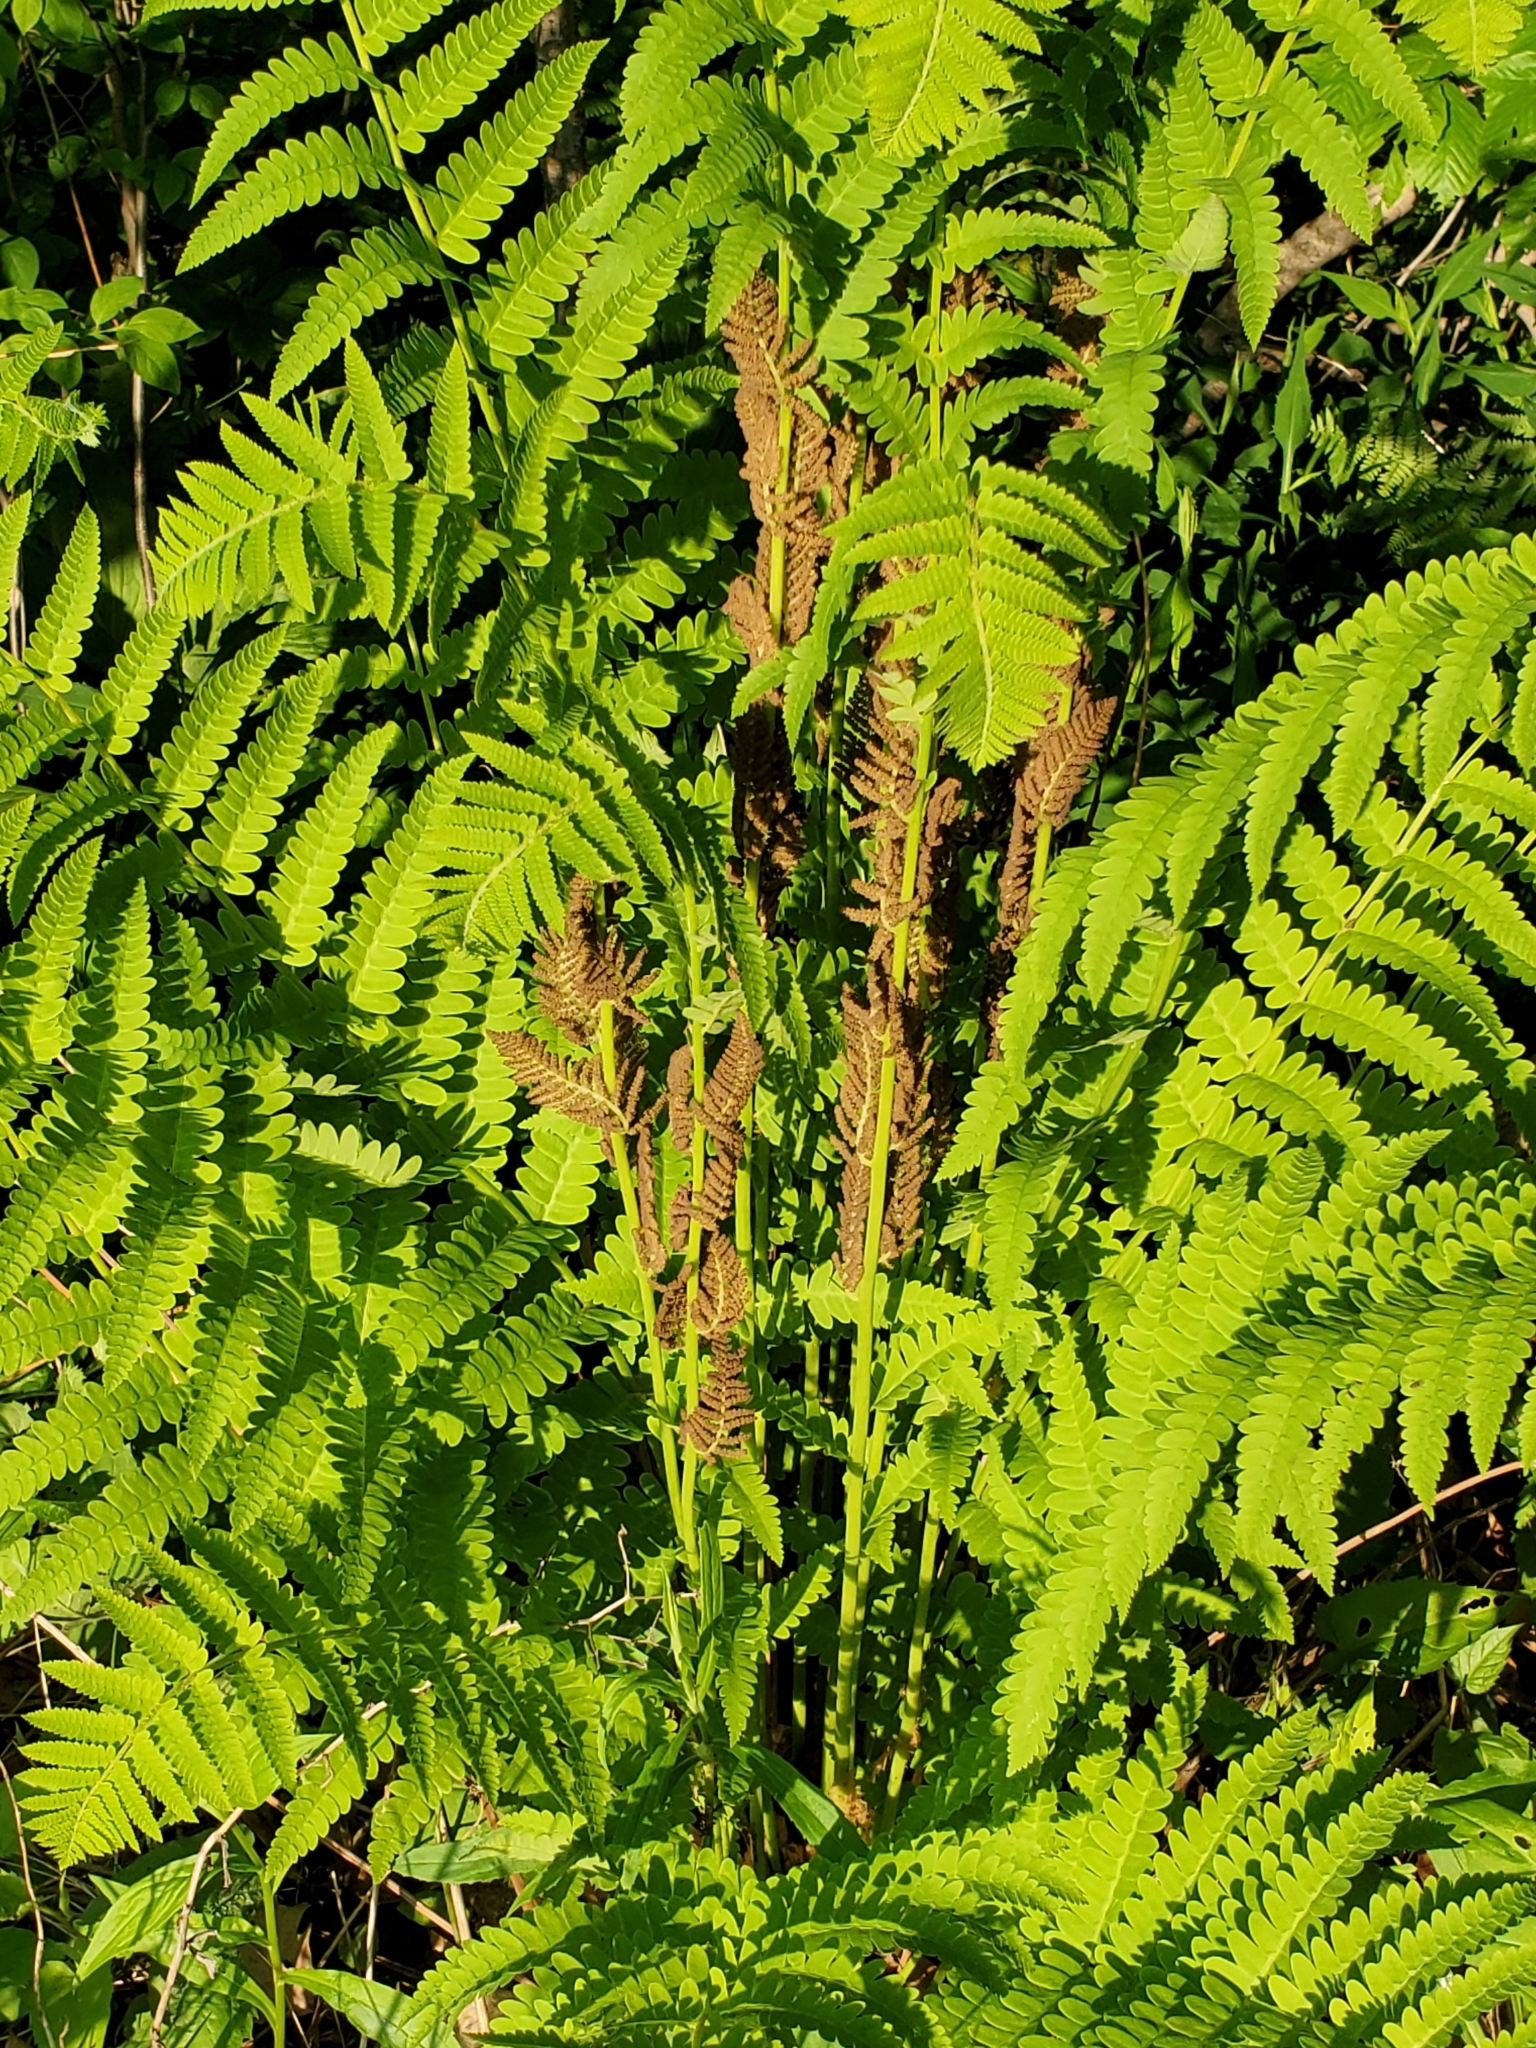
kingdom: Plantae
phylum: Tracheophyta
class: Polypodiopsida
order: Osmundales
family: Osmundaceae
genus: Claytosmunda
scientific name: Claytosmunda claytoniana
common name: Clayton's fern
